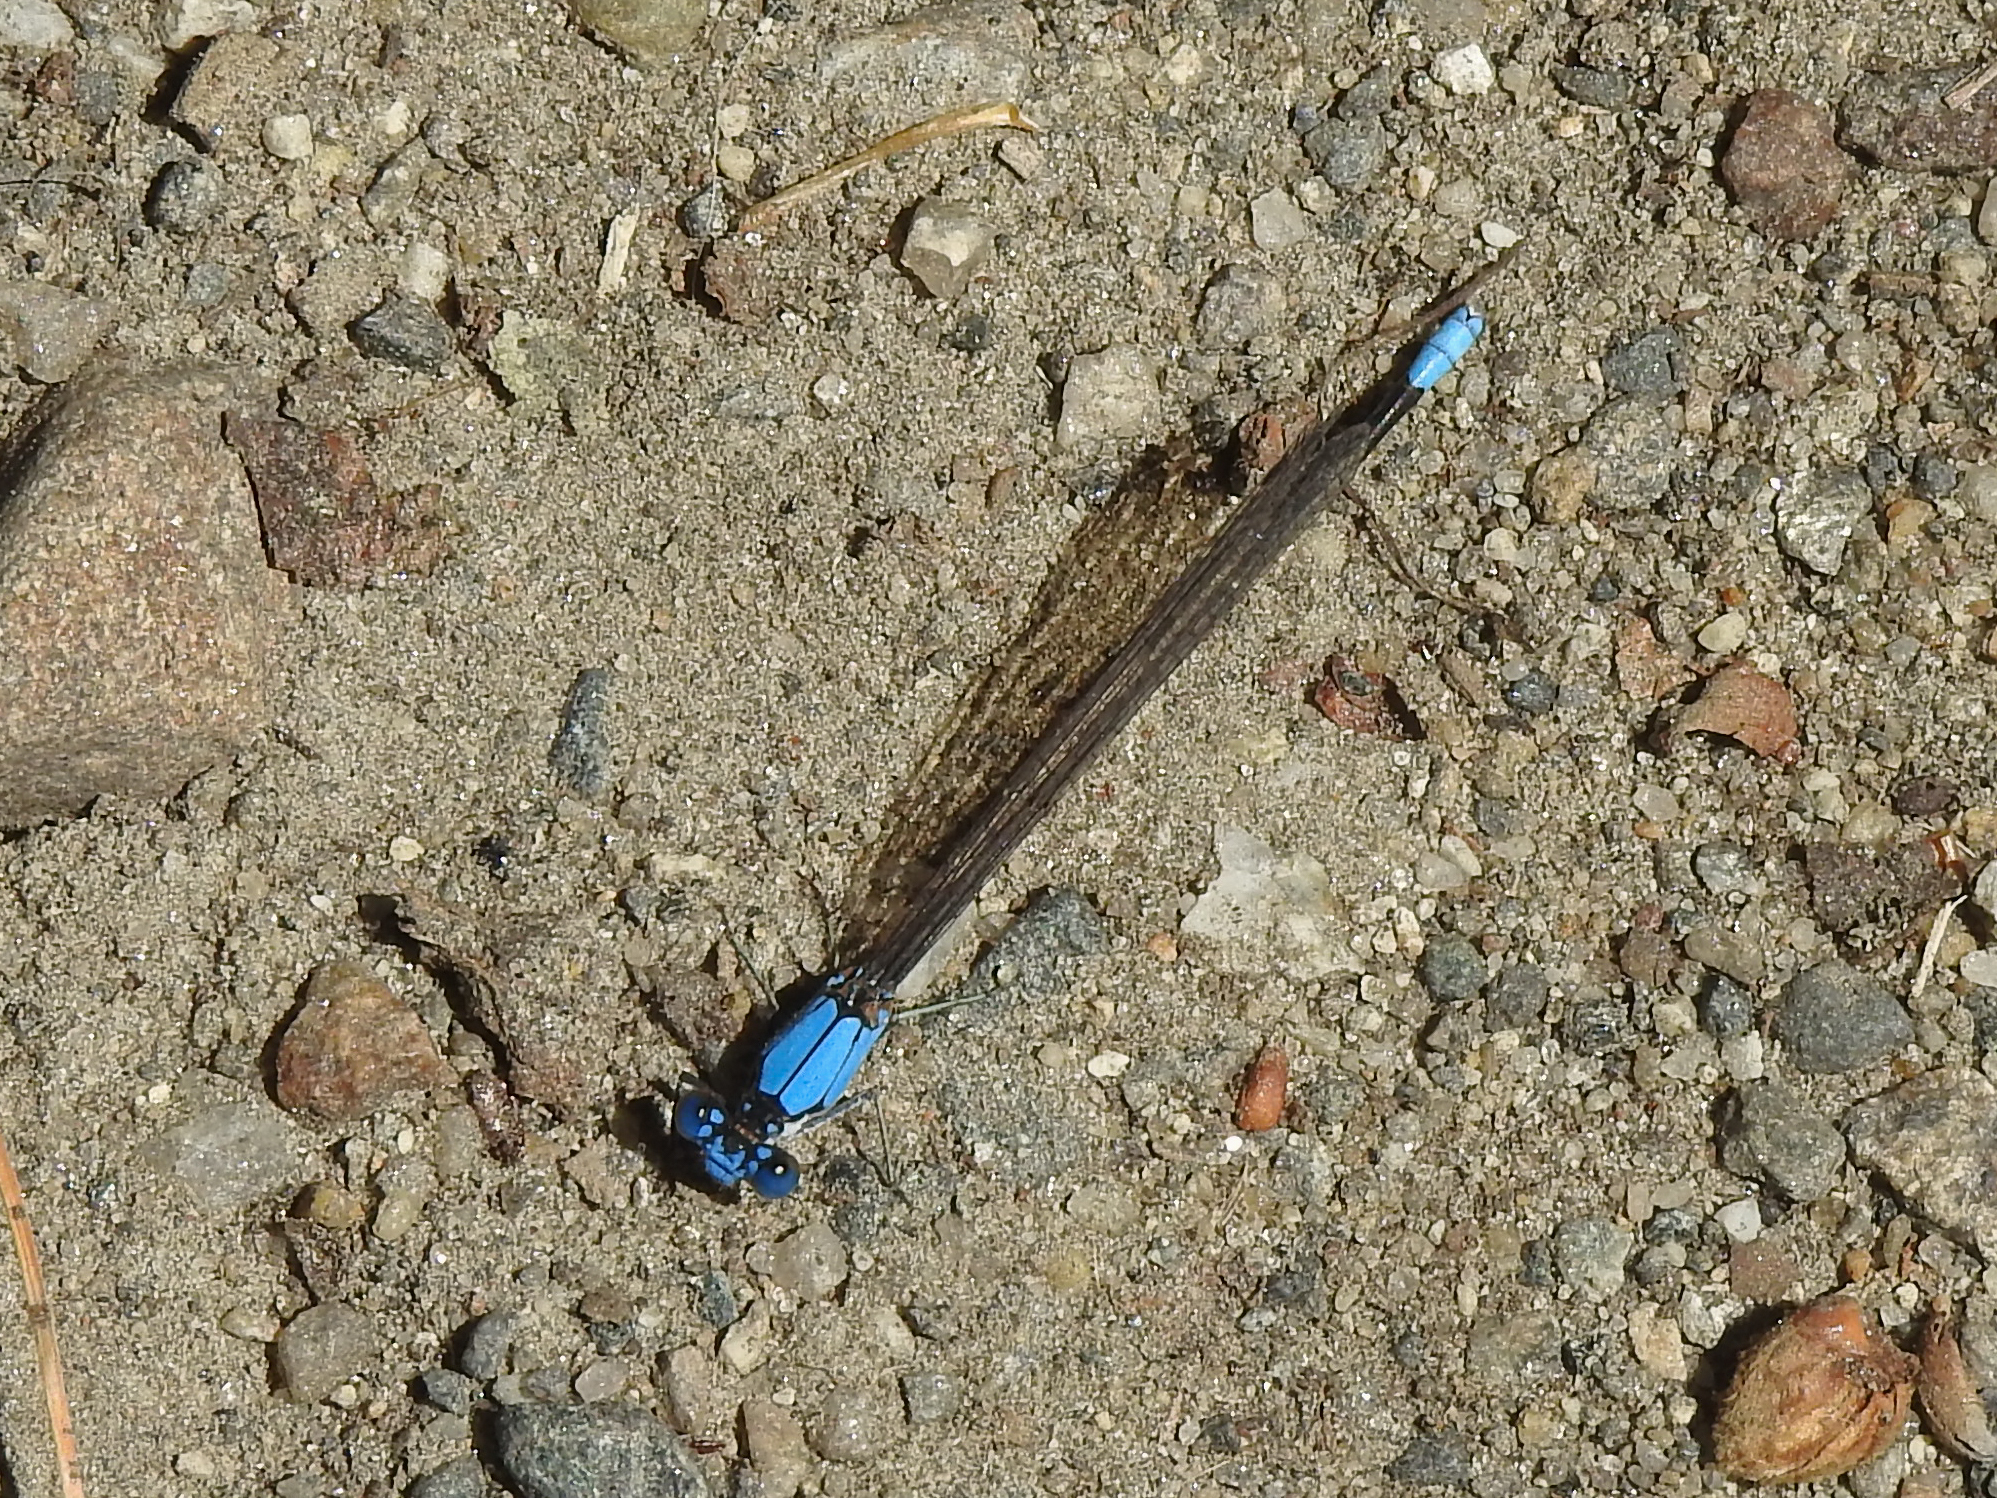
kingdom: Animalia
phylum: Arthropoda
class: Insecta
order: Odonata
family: Coenagrionidae
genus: Argia
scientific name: Argia apicalis
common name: Blue-fronted dancer
